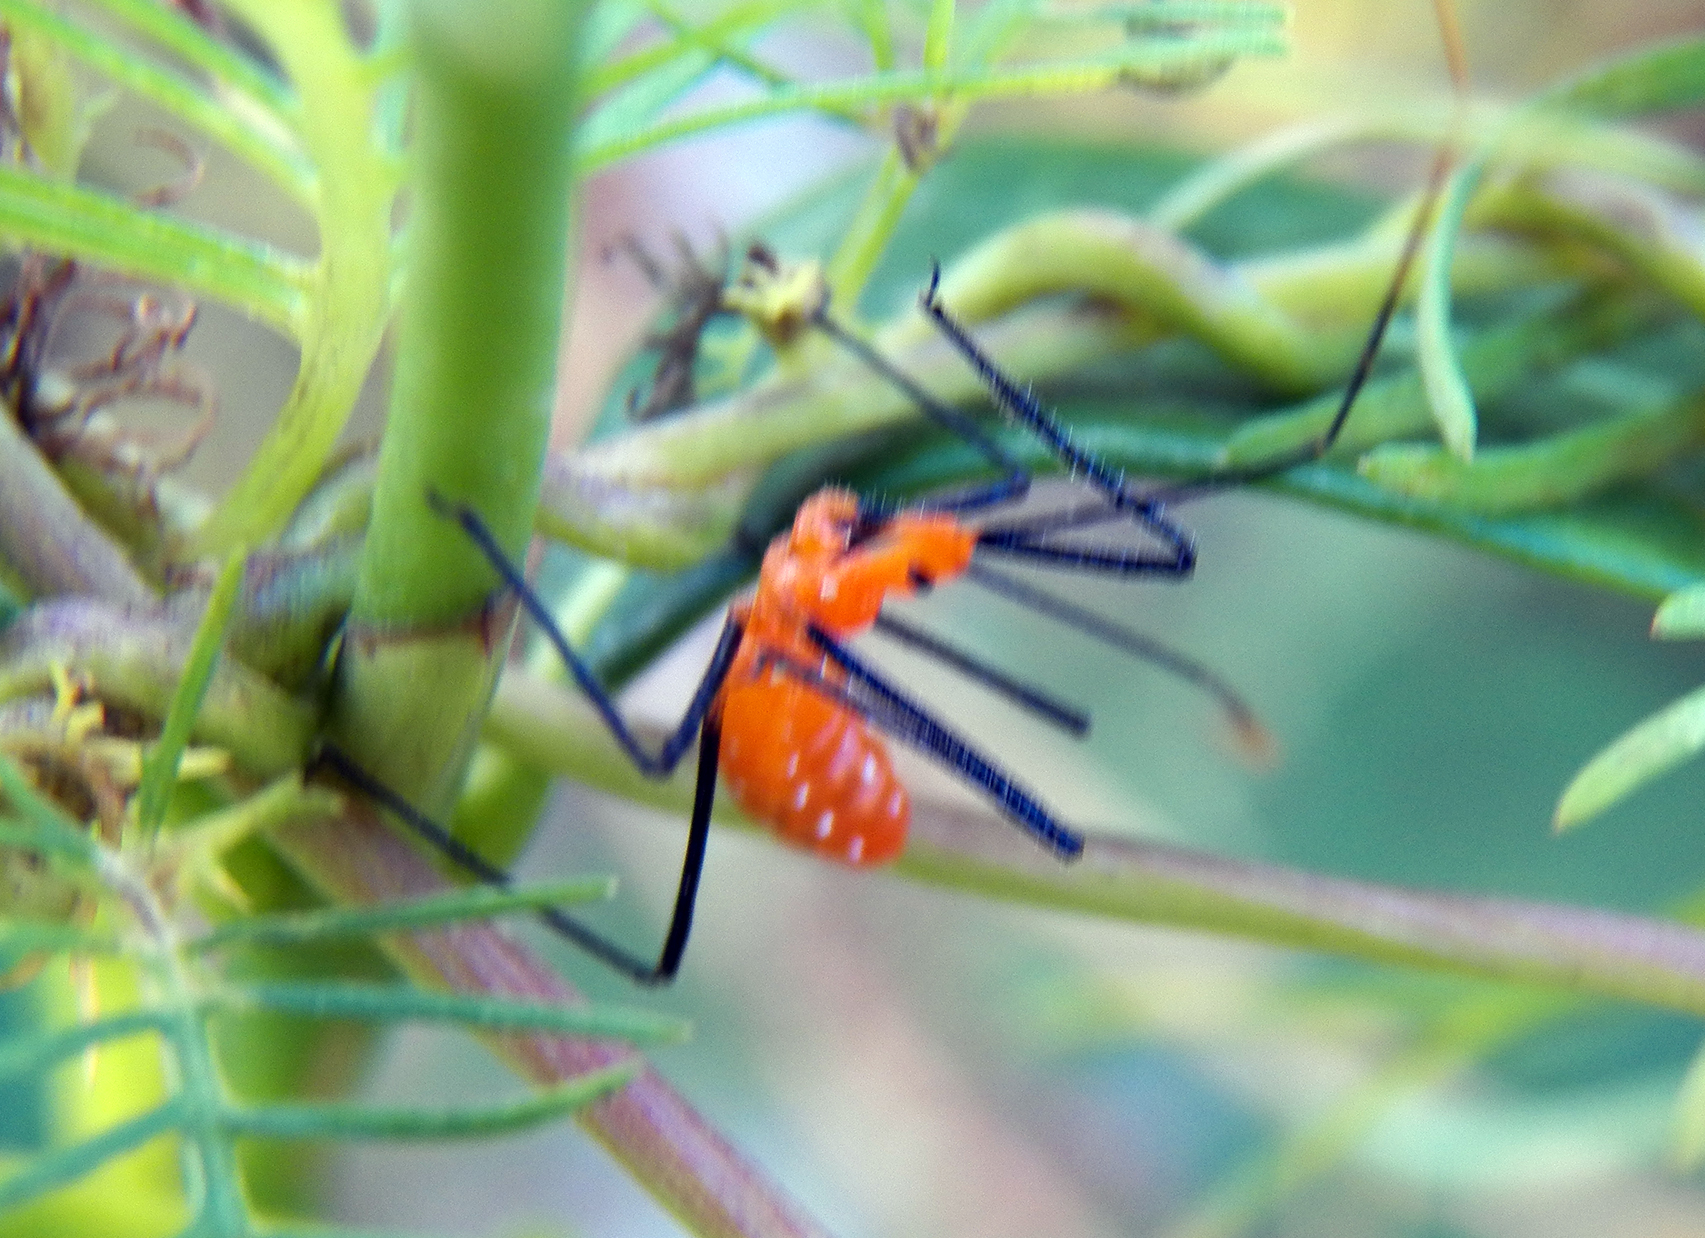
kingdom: Animalia
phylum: Arthropoda
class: Insecta
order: Hemiptera
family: Reduviidae
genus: Zelus
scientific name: Zelus longipes
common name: Milkweed assassin bug
